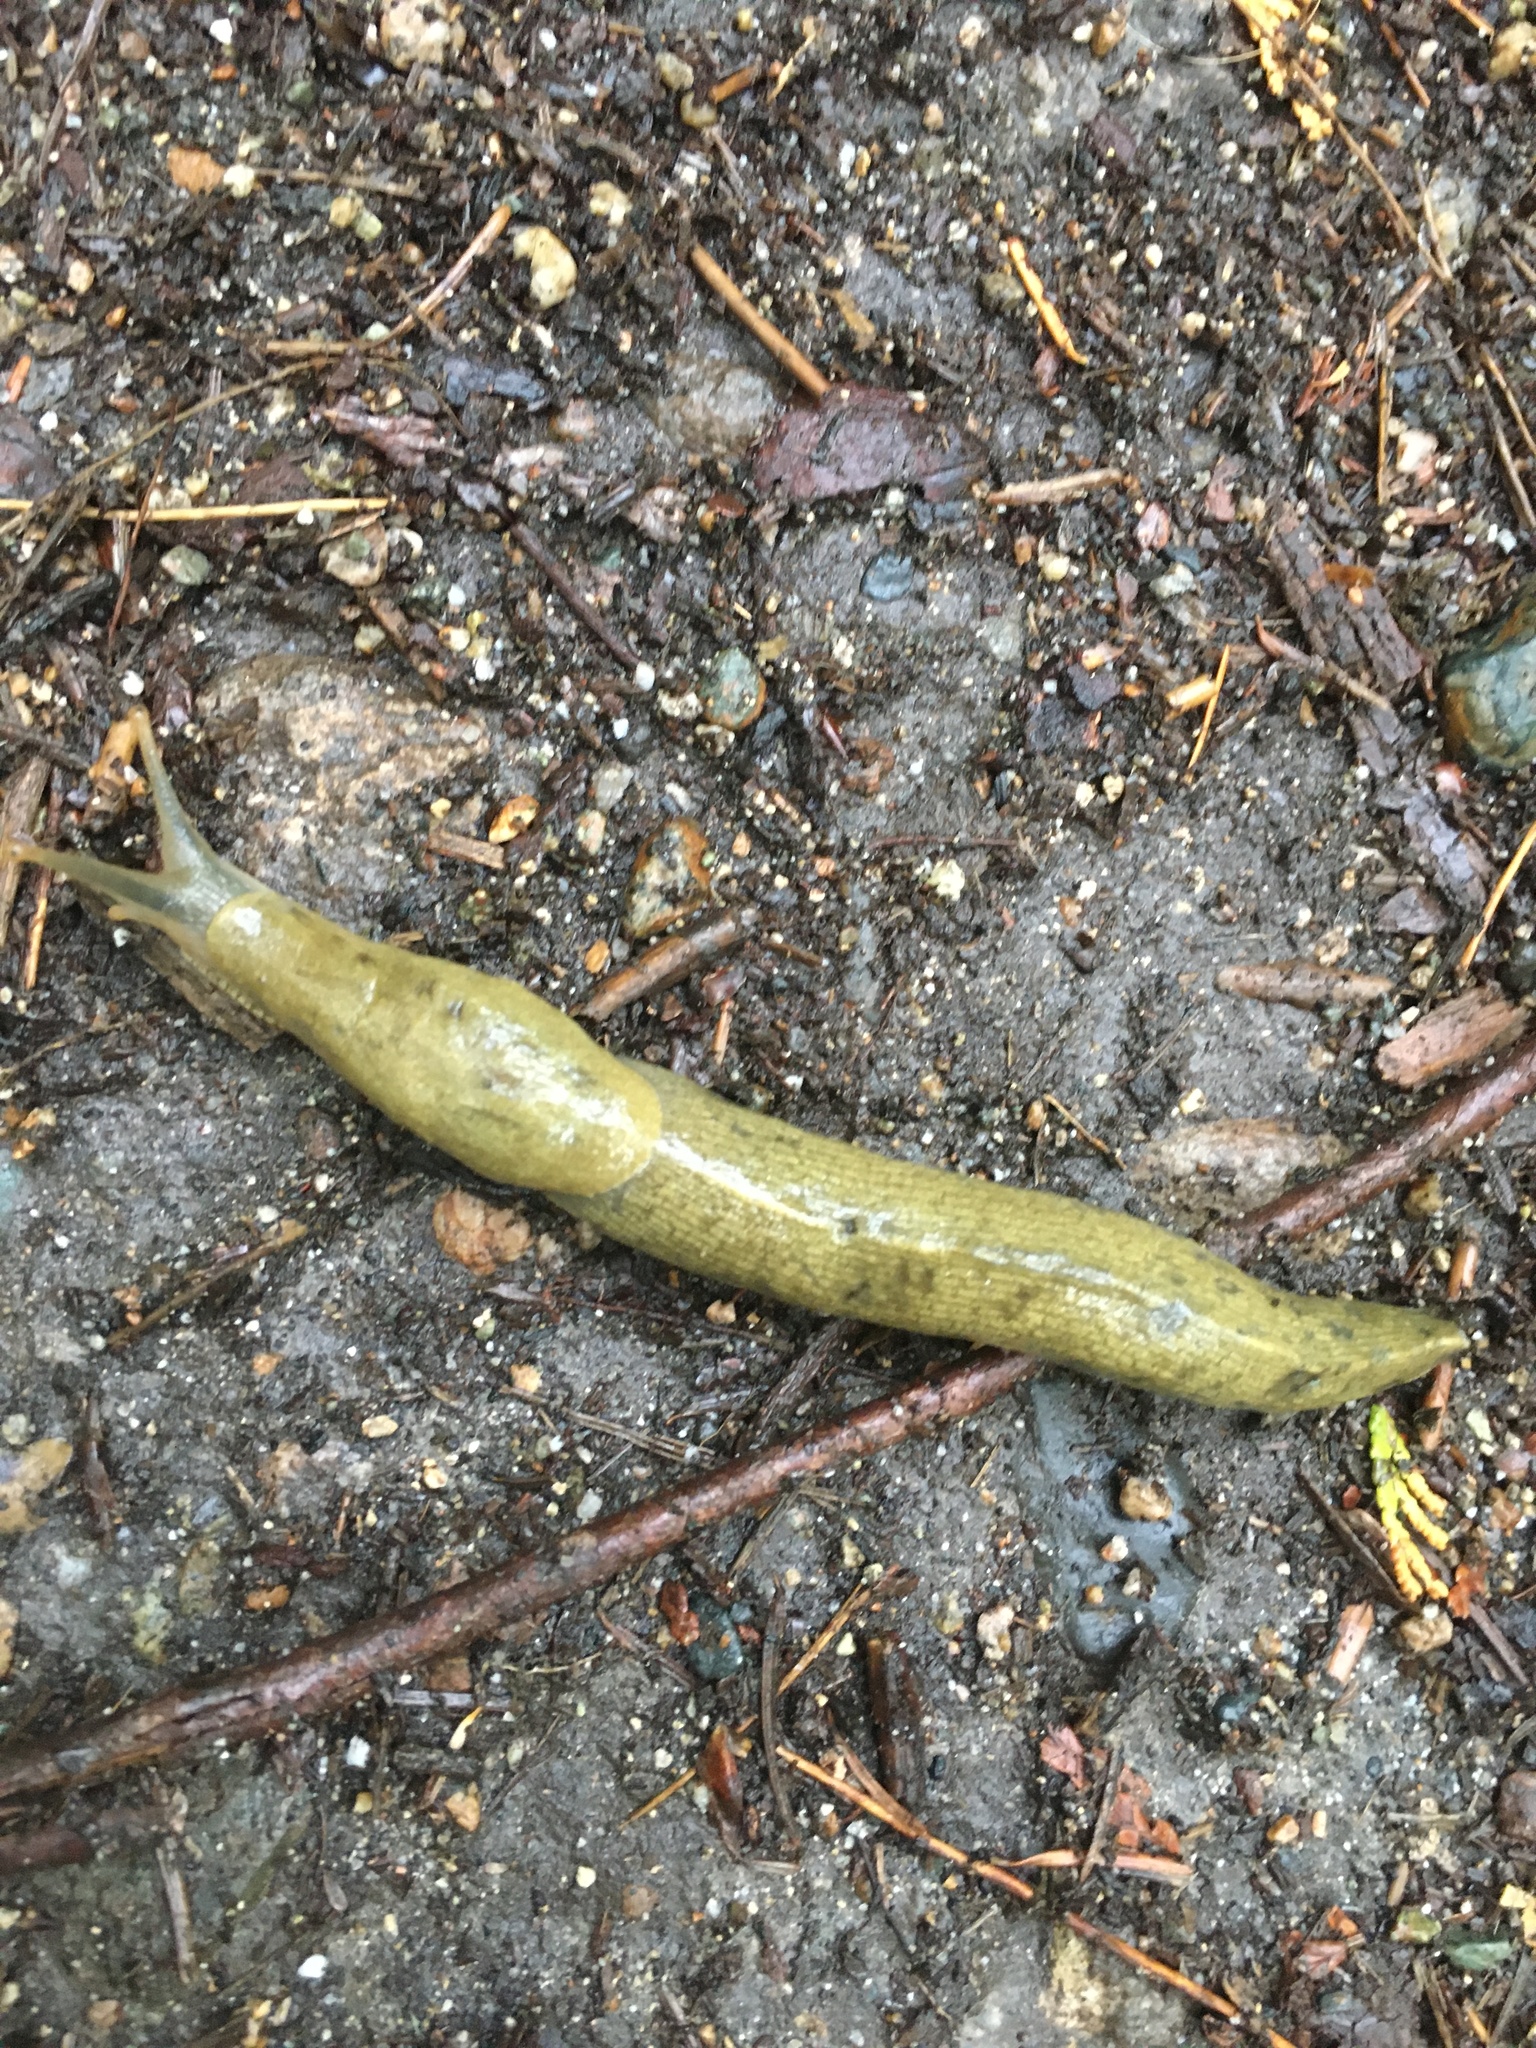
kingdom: Animalia
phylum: Mollusca
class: Gastropoda
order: Stylommatophora
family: Ariolimacidae
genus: Ariolimax
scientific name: Ariolimax columbianus
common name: Pacific banana slug
